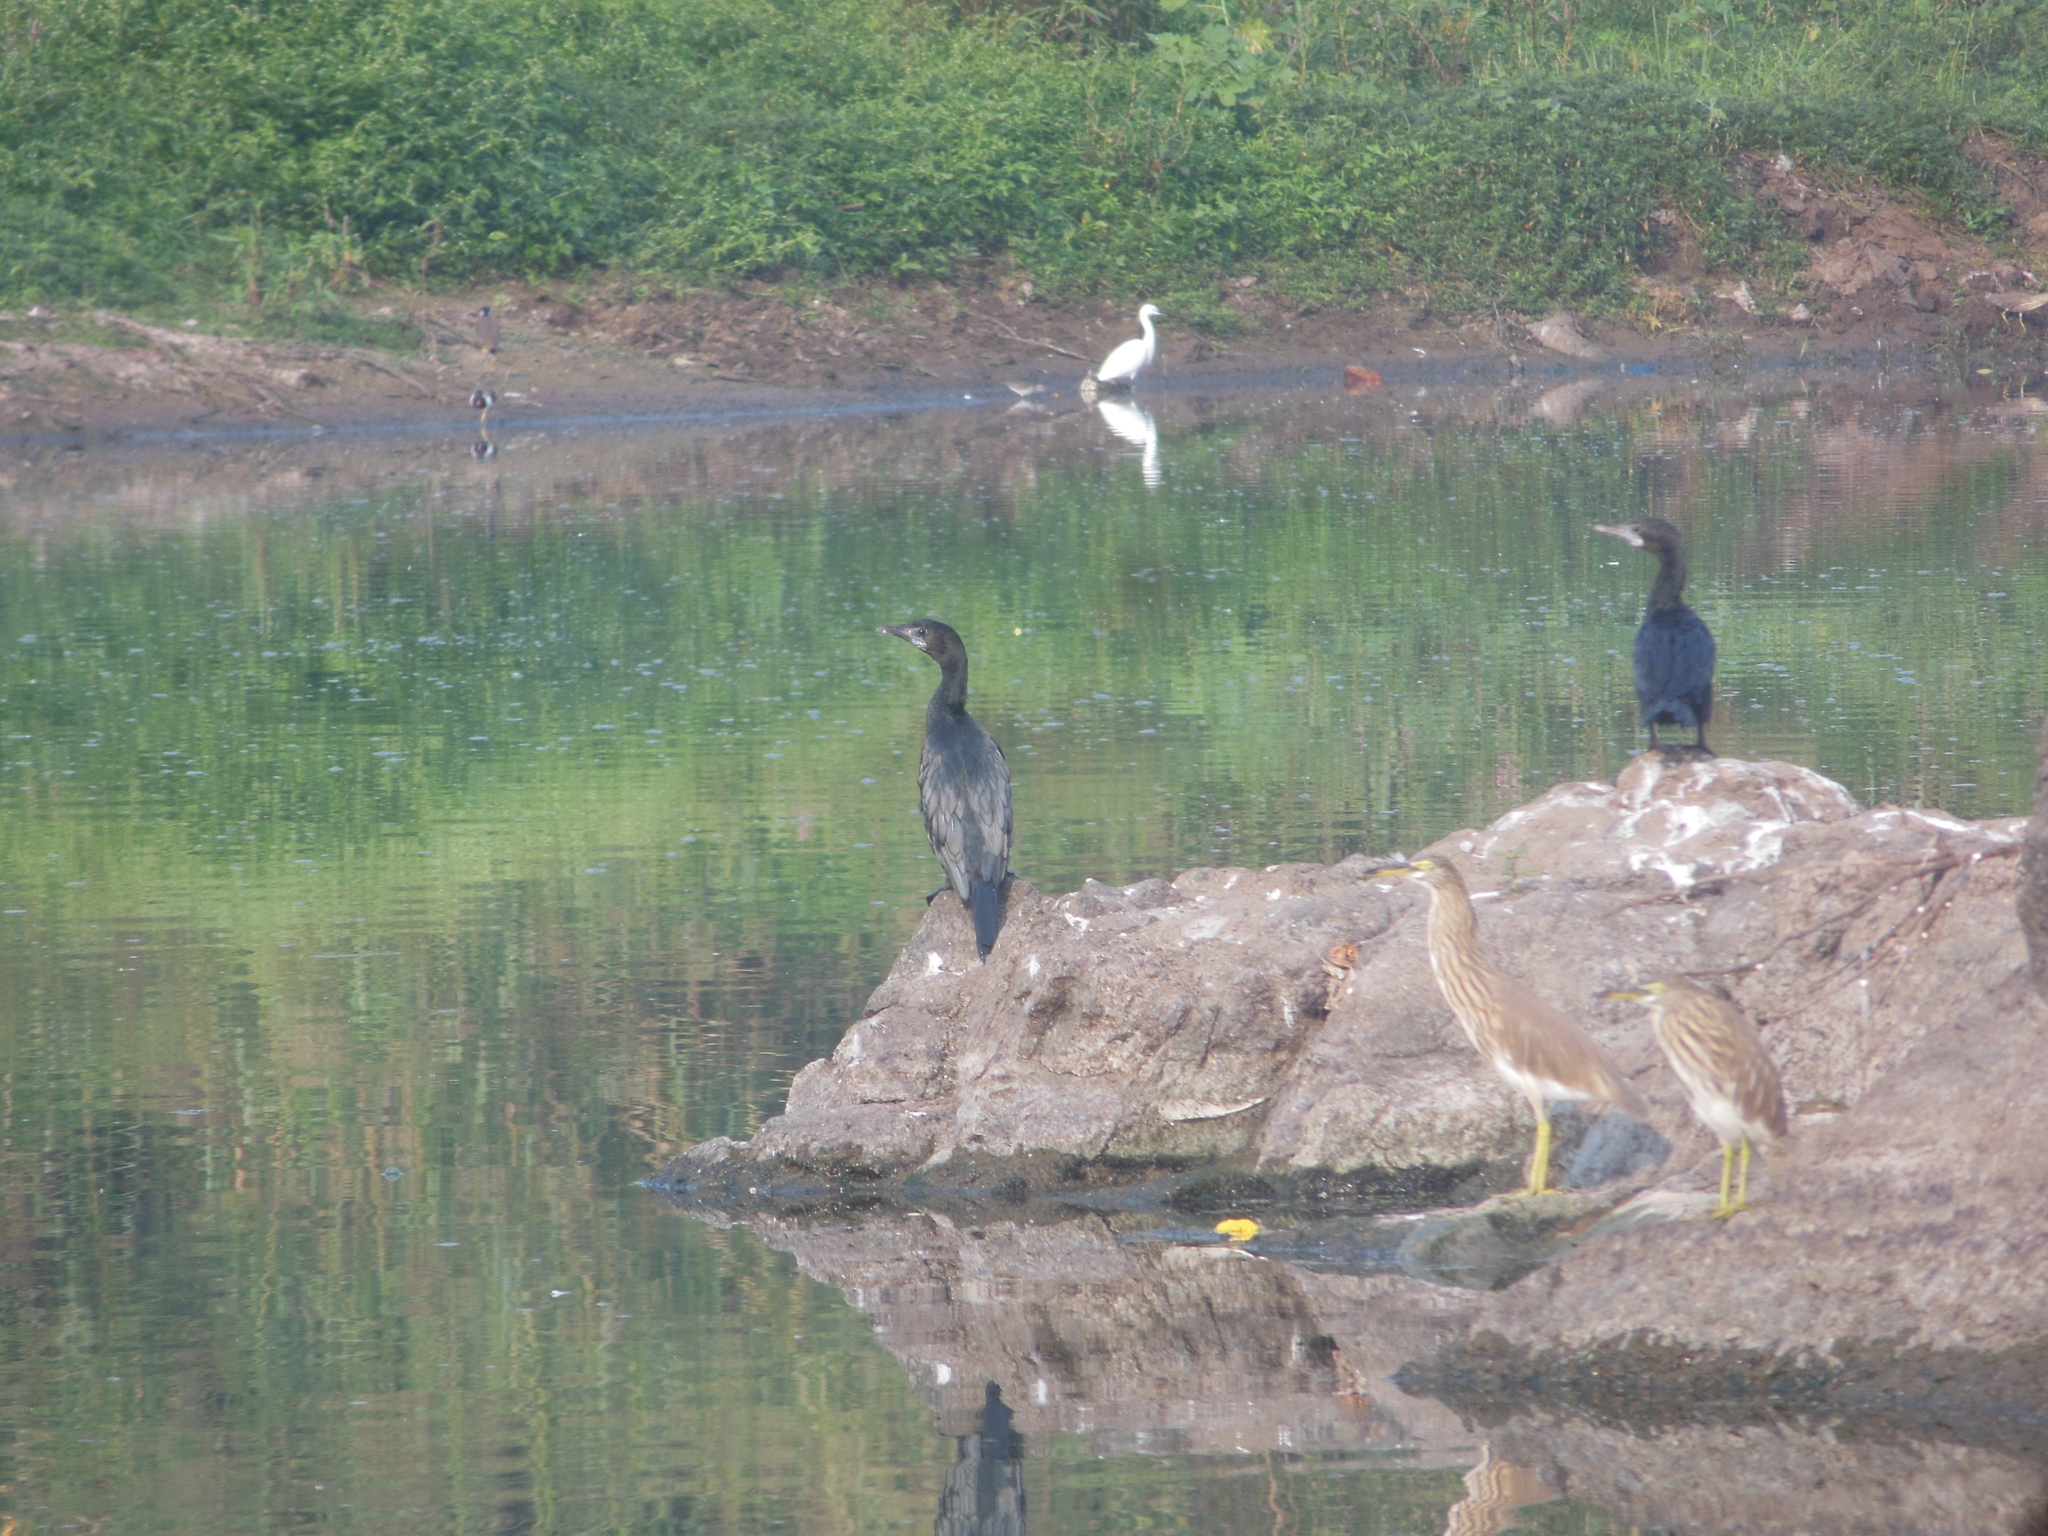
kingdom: Animalia
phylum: Chordata
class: Aves
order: Suliformes
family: Phalacrocoracidae
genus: Microcarbo
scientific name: Microcarbo niger
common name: Little cormorant
